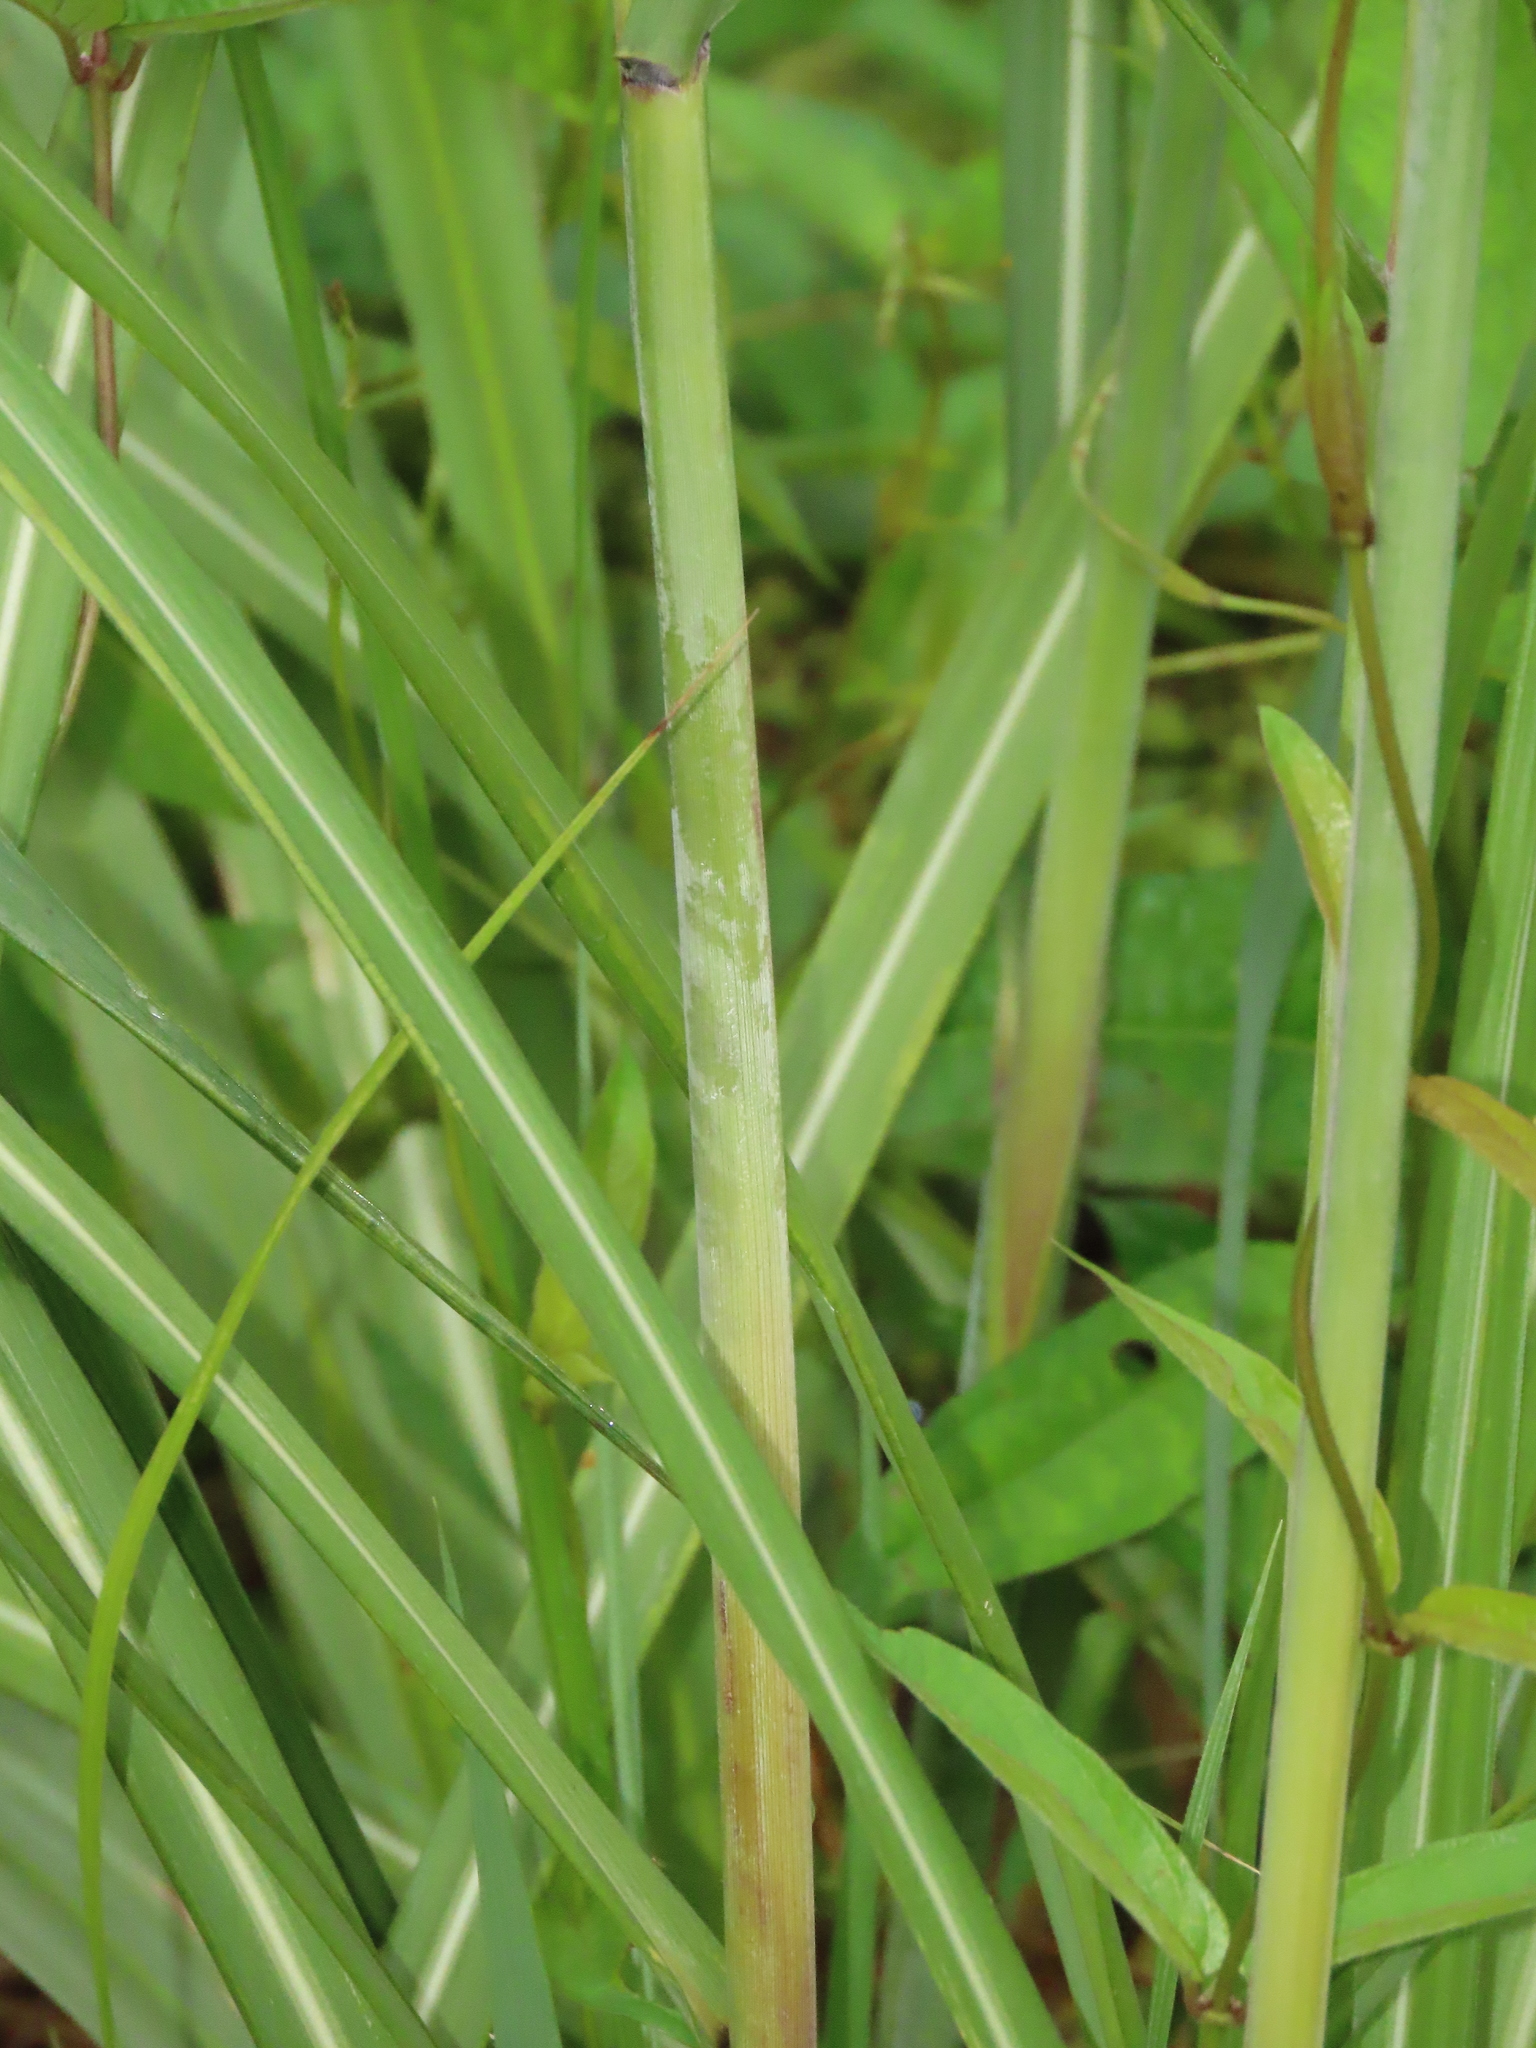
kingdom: Plantae
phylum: Tracheophyta
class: Liliopsida
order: Poales
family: Poaceae
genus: Miscanthus
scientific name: Miscanthus sinensis
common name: Chinese silvergrass
